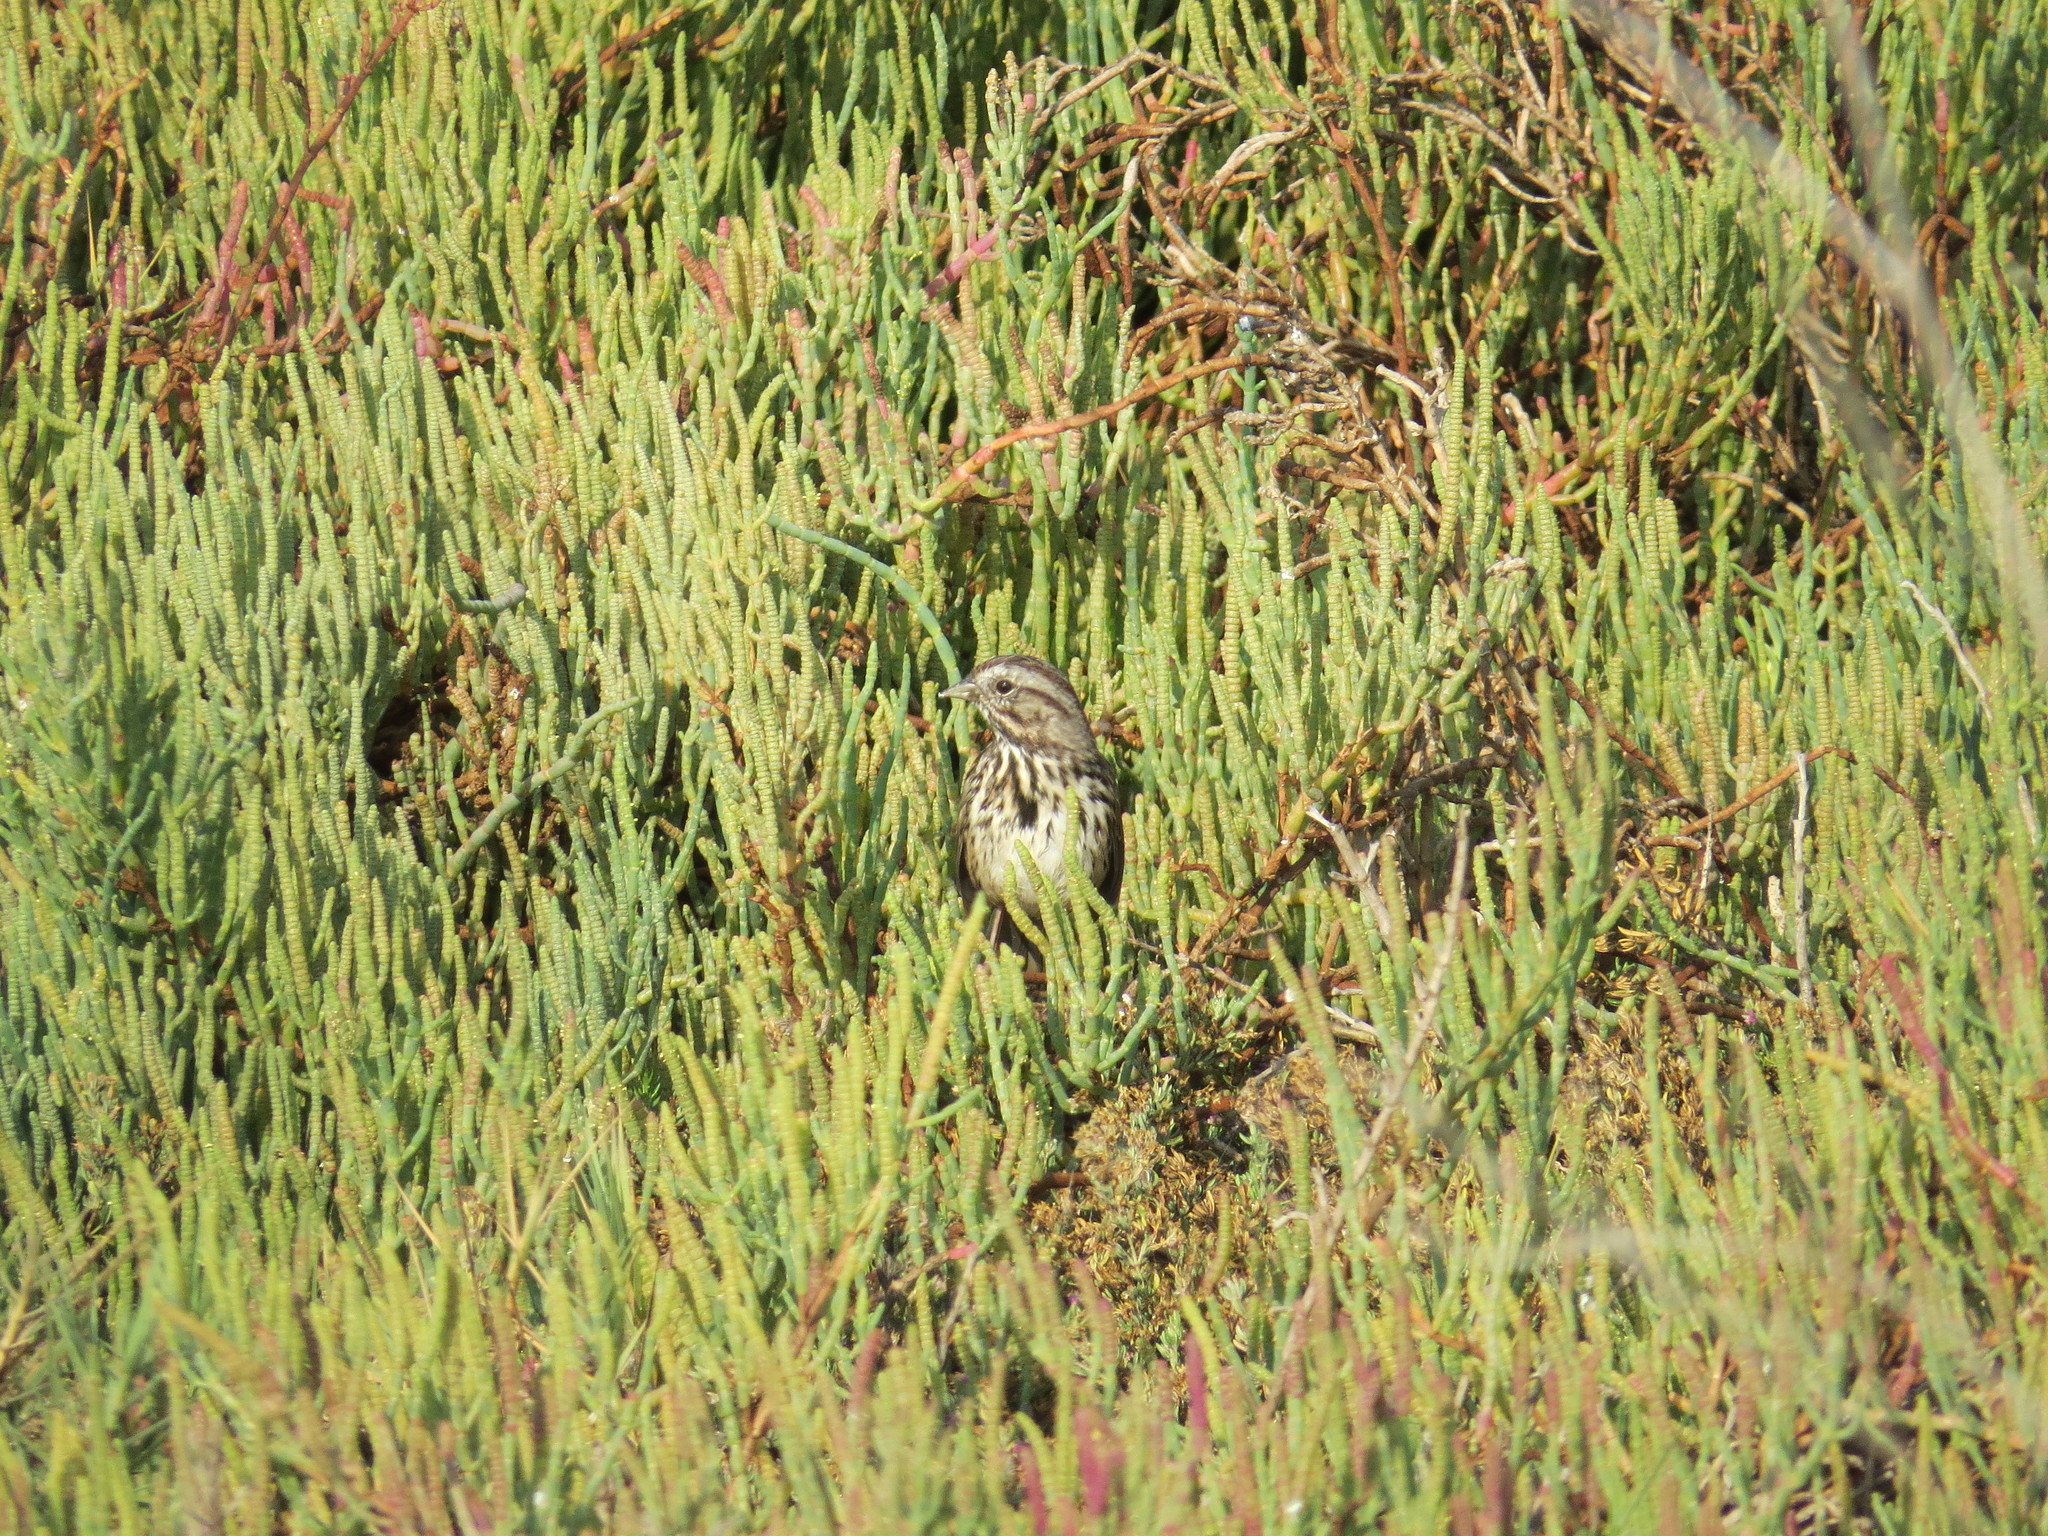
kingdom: Animalia
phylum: Chordata
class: Aves
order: Passeriformes
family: Passerellidae
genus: Melospiza
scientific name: Melospiza melodia
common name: Song sparrow
